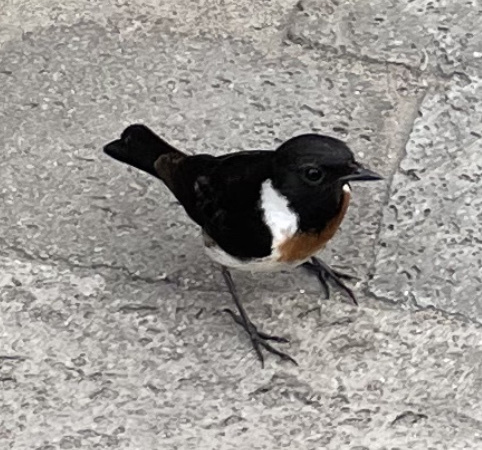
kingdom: Animalia
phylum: Chordata
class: Aves
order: Passeriformes
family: Muscicapidae
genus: Saxicola
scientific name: Saxicola torquatus
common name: African stonechat
